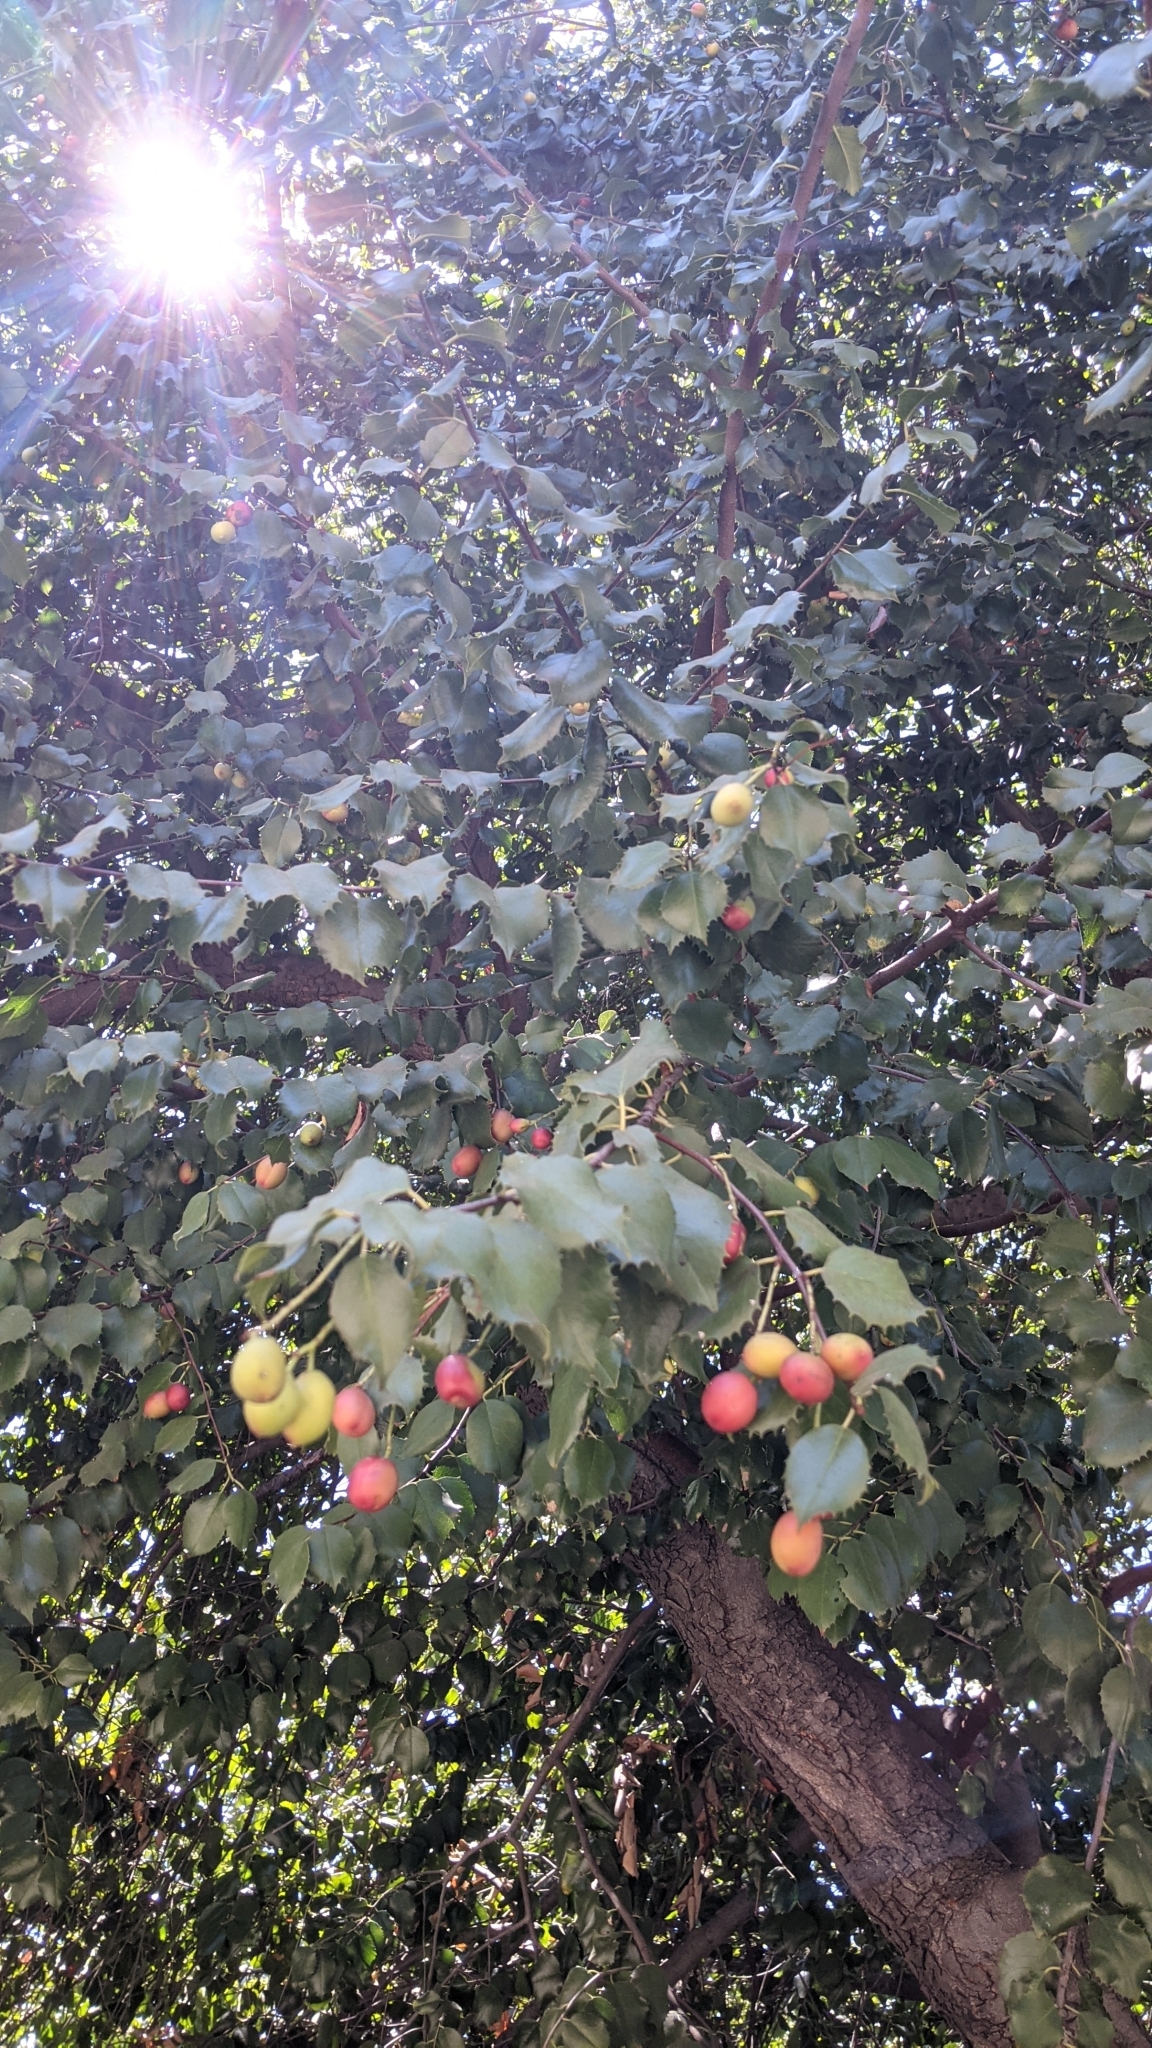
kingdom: Plantae
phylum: Tracheophyta
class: Magnoliopsida
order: Rosales
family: Rosaceae
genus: Prunus
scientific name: Prunus ilicifolia
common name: Hollyleaf cherry
